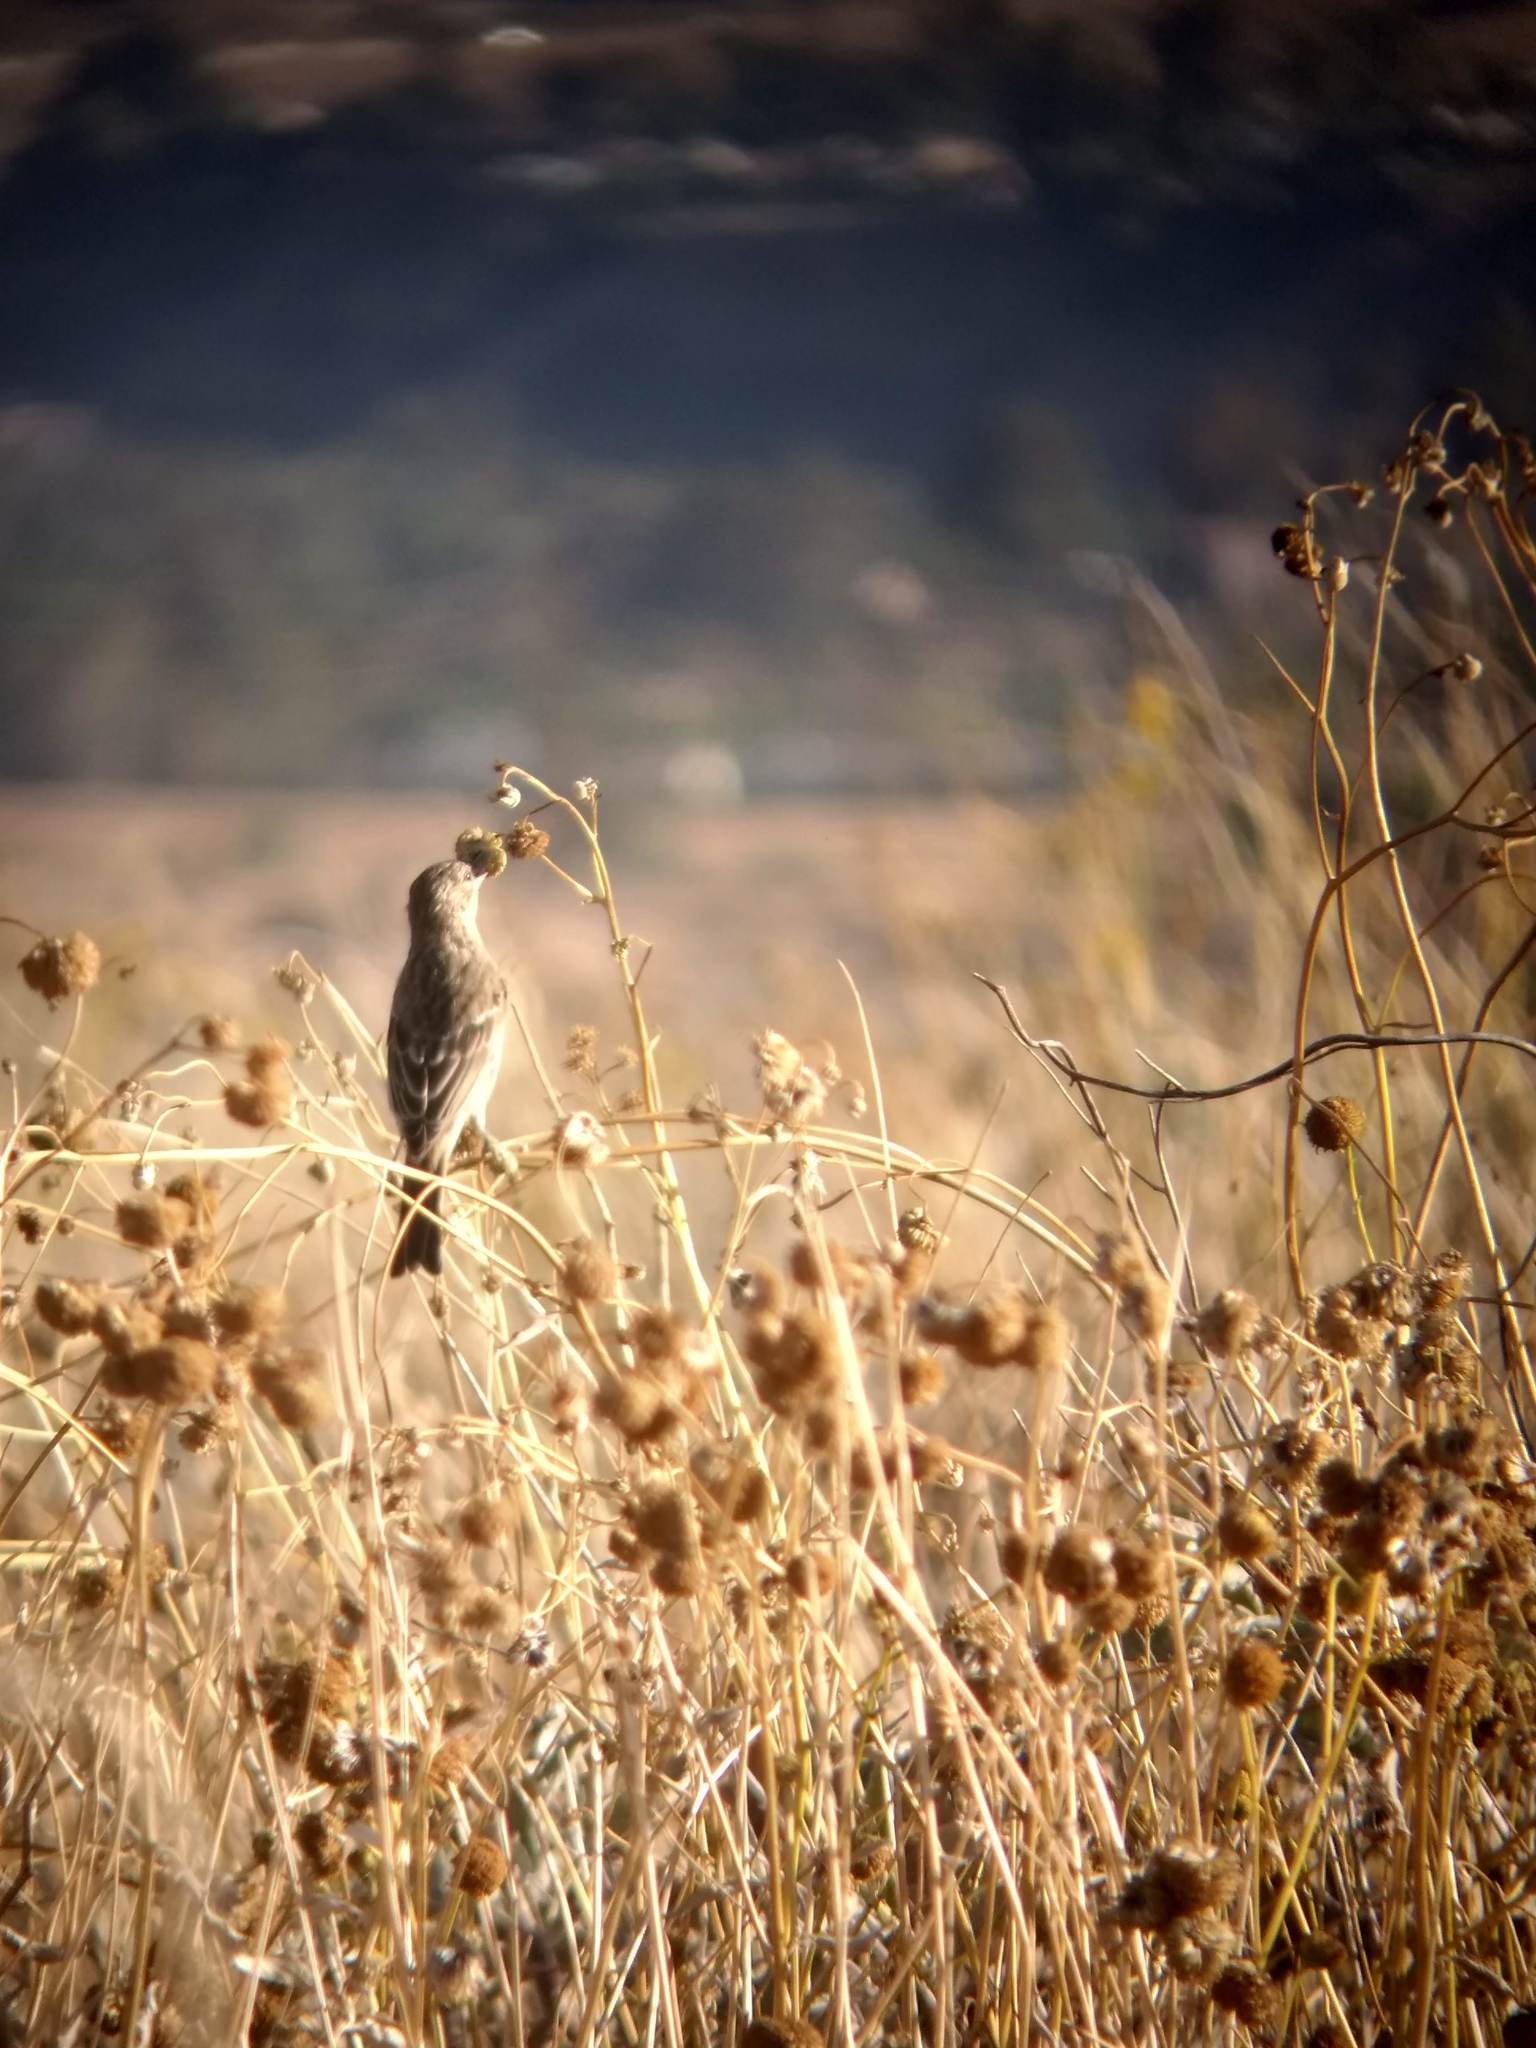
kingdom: Animalia
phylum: Chordata
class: Aves
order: Passeriformes
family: Fringillidae
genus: Haemorhous
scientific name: Haemorhous mexicanus
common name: House finch
